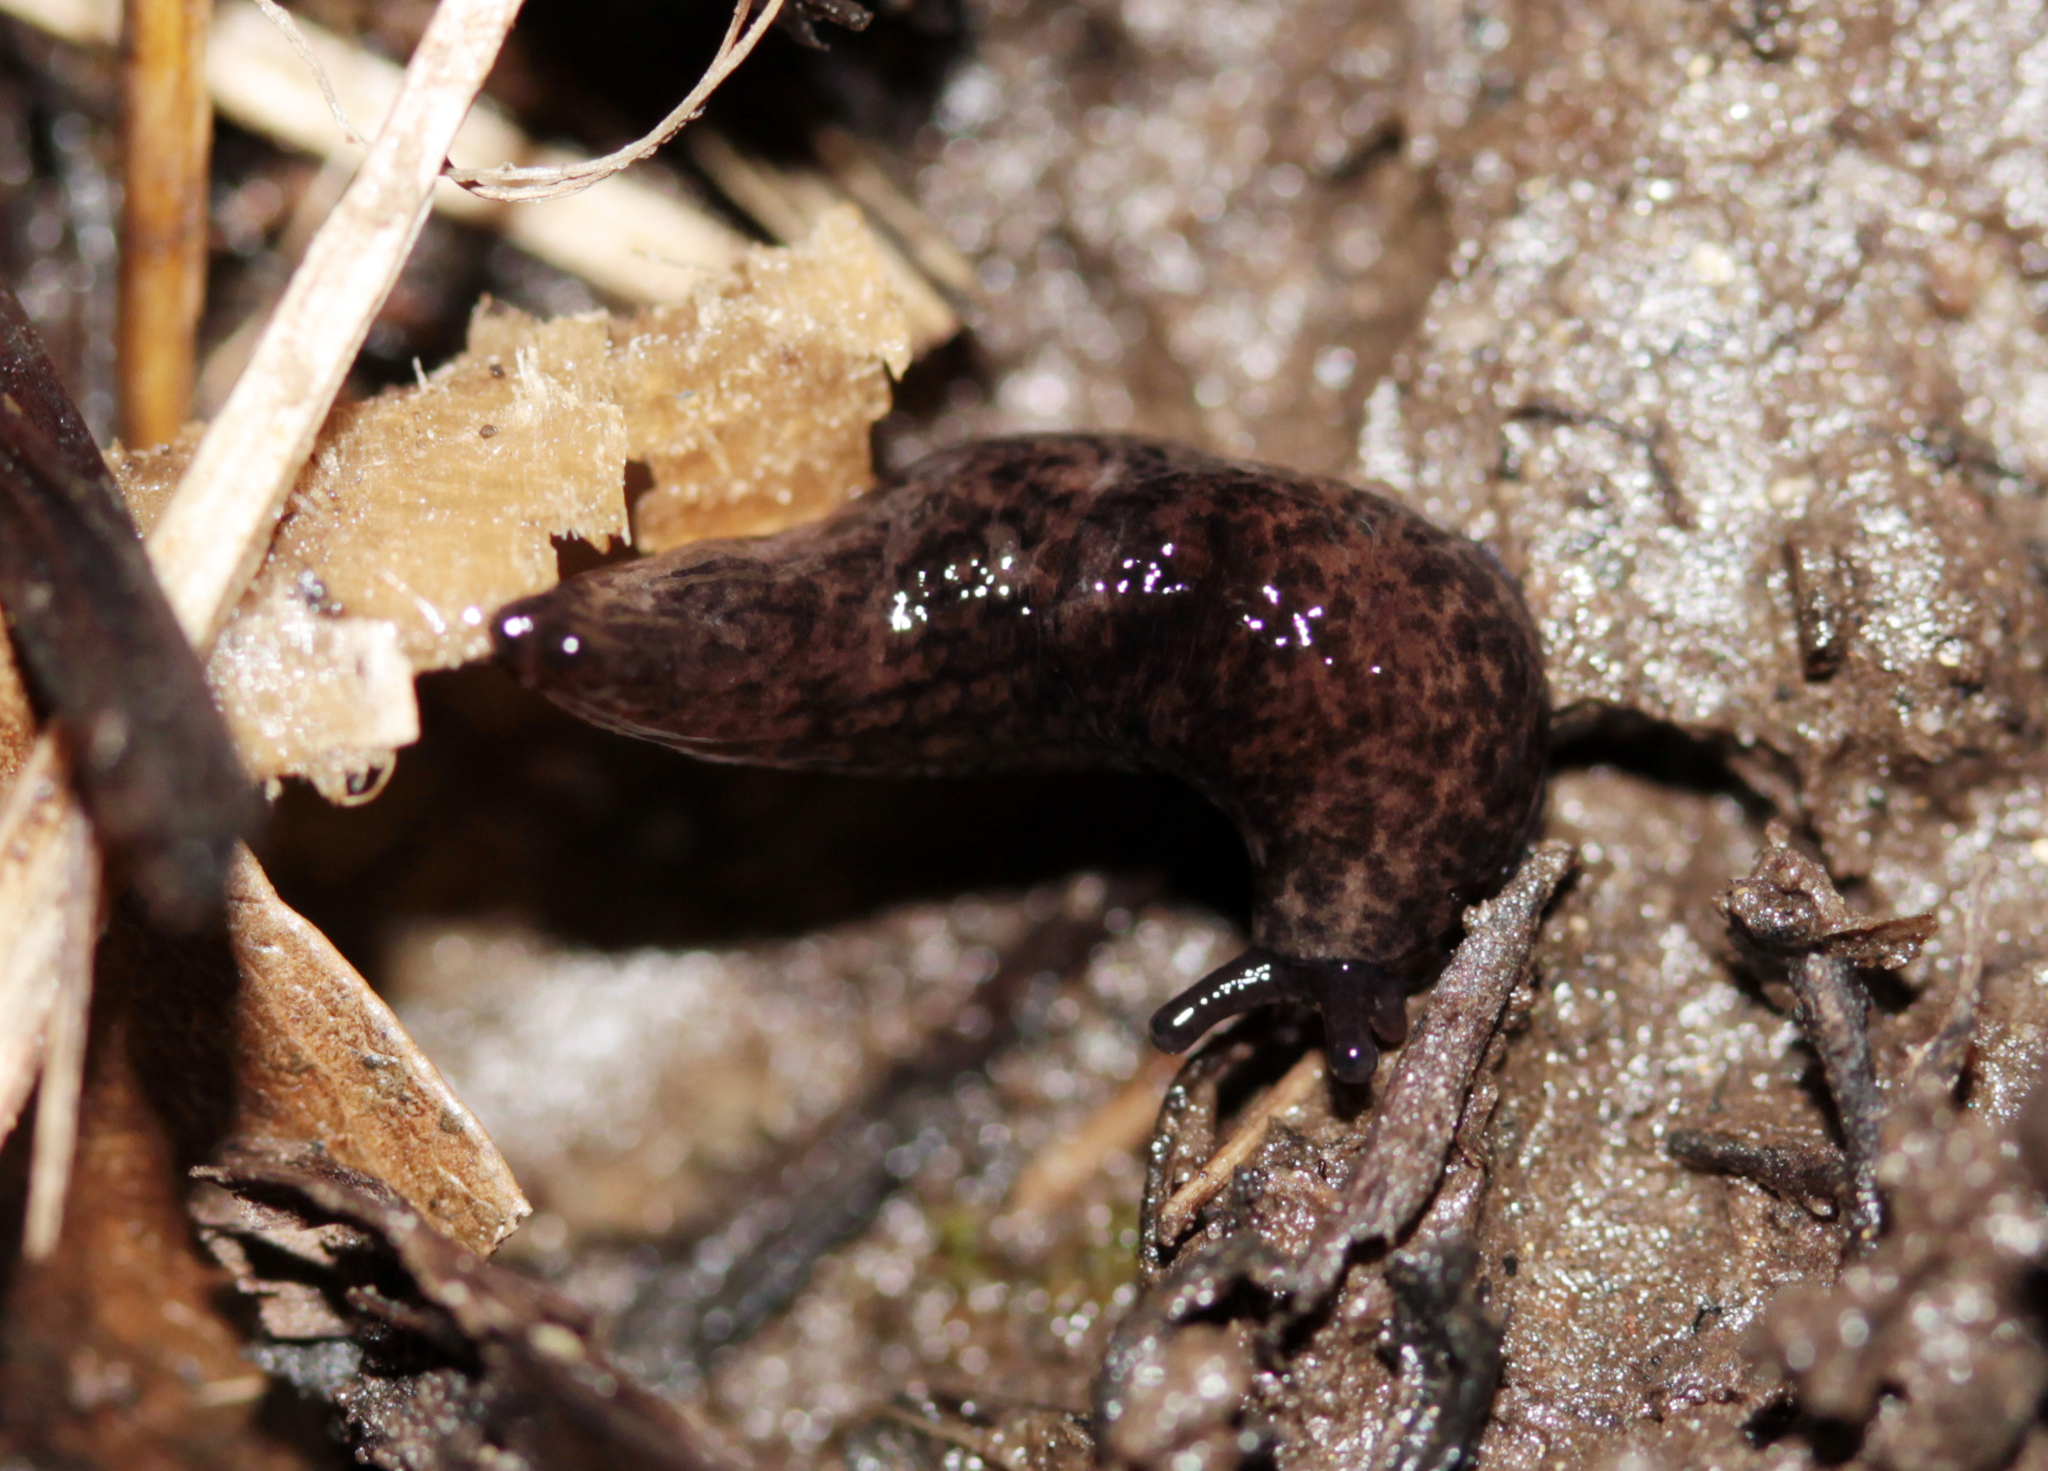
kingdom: Animalia
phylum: Mollusca
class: Gastropoda
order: Stylommatophora
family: Agriolimacidae
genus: Deroceras
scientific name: Deroceras reticulatum
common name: Gray field slug
